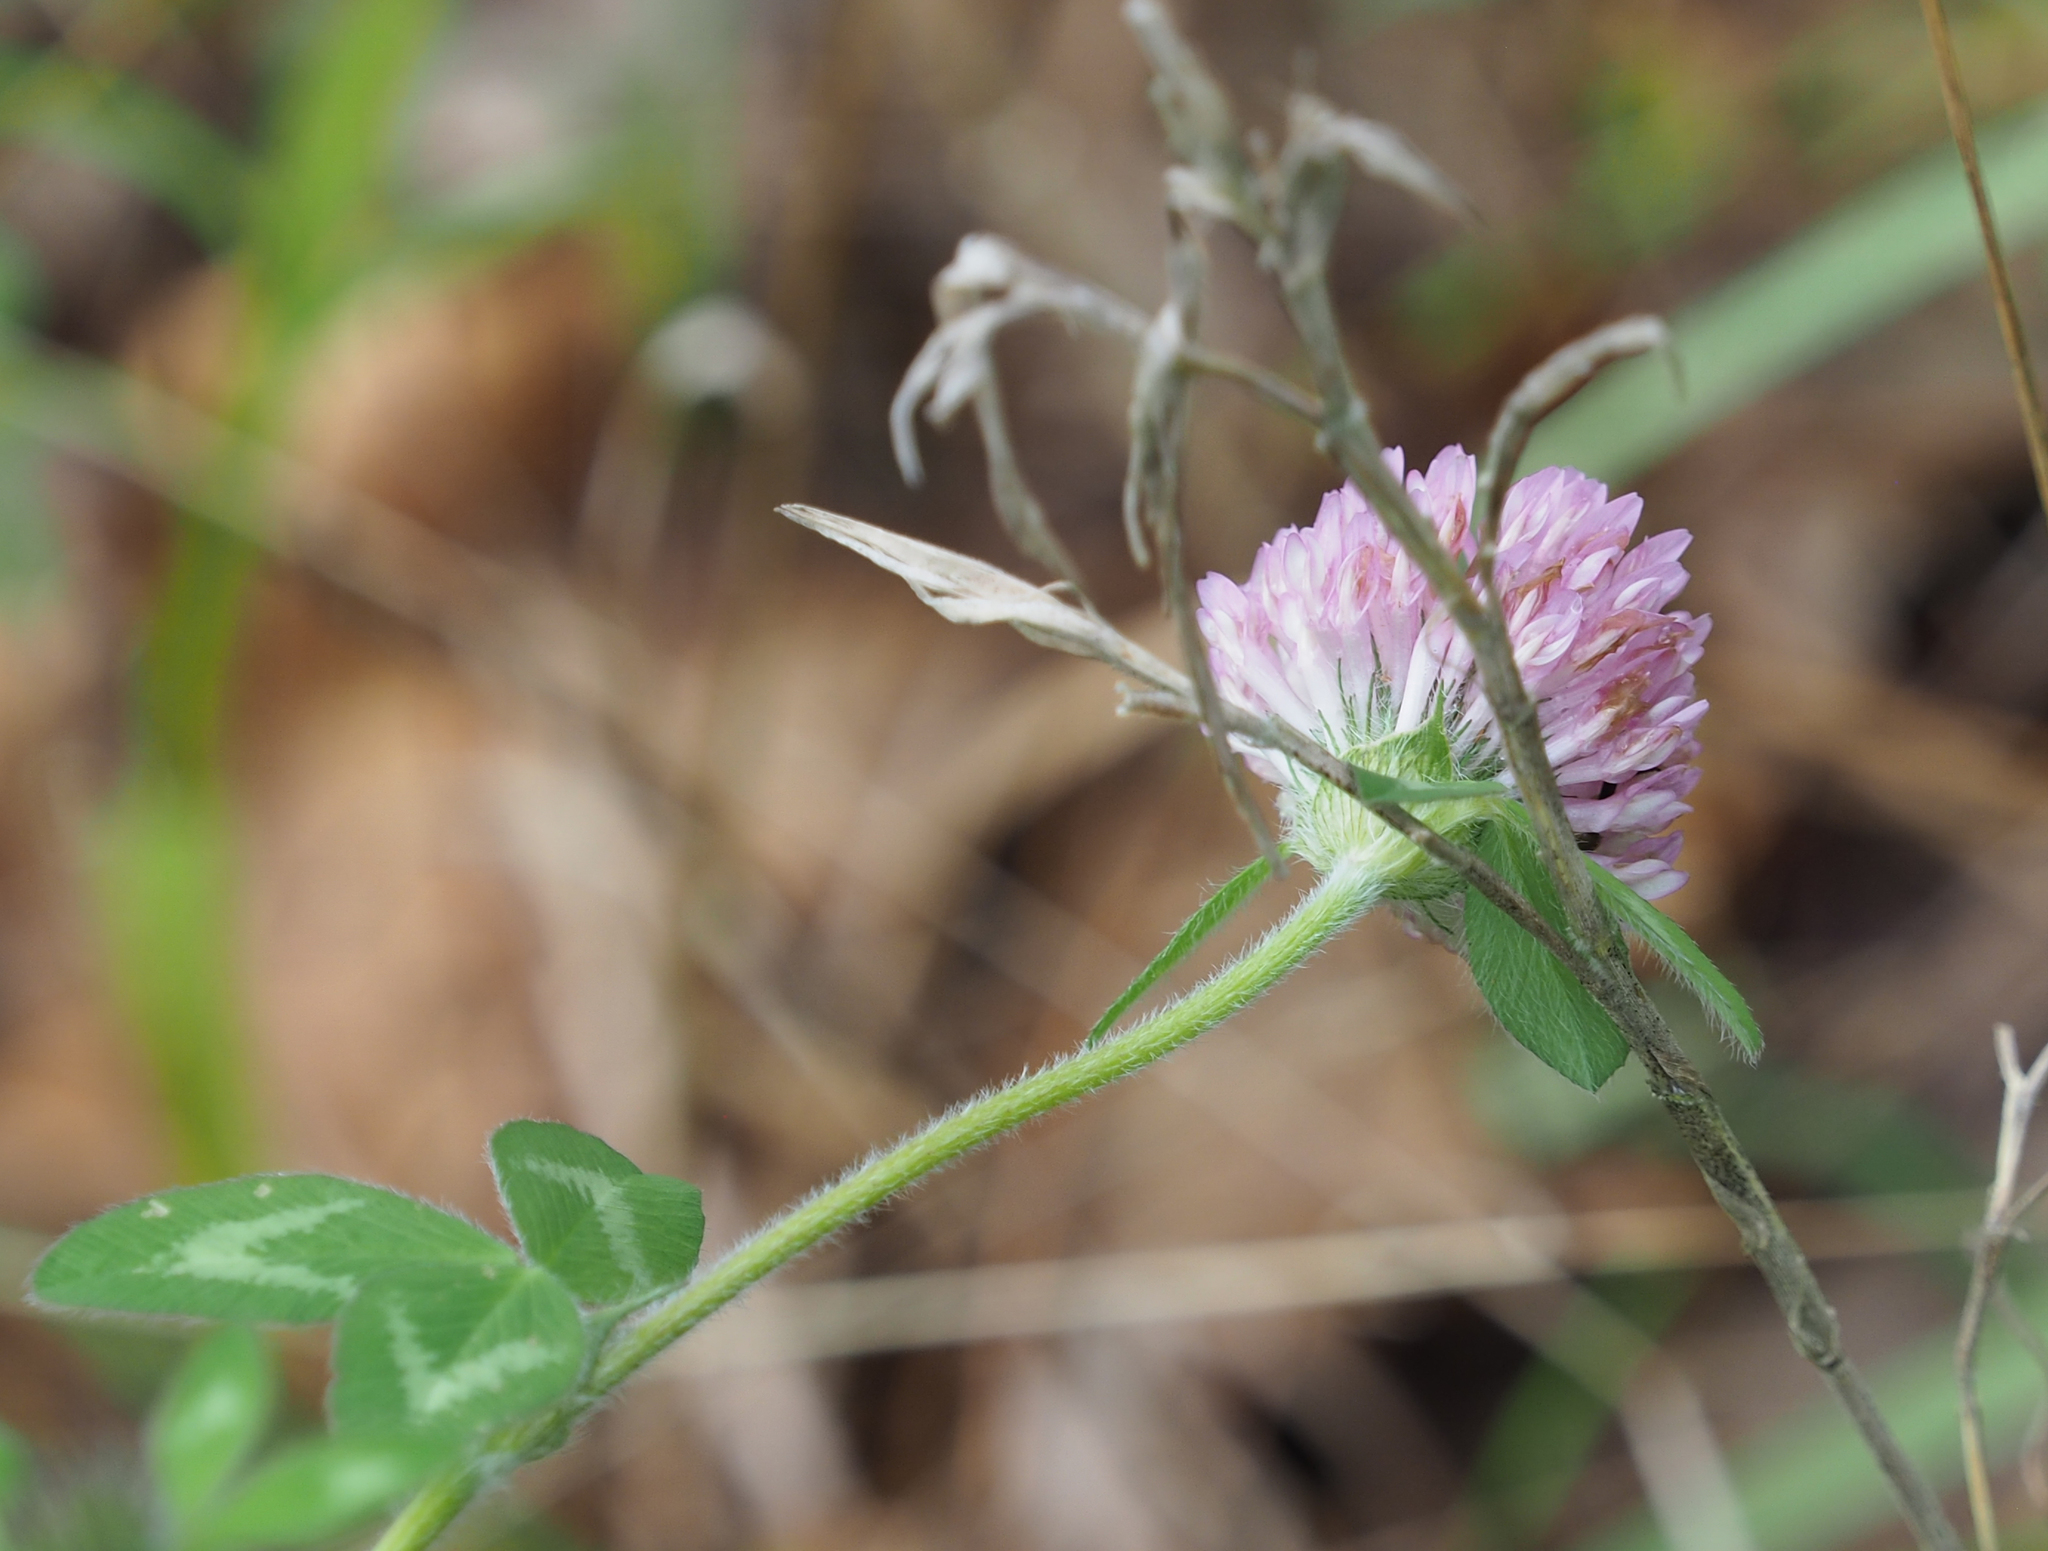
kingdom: Plantae
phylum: Tracheophyta
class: Magnoliopsida
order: Fabales
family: Fabaceae
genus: Trifolium
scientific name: Trifolium pratense
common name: Red clover
